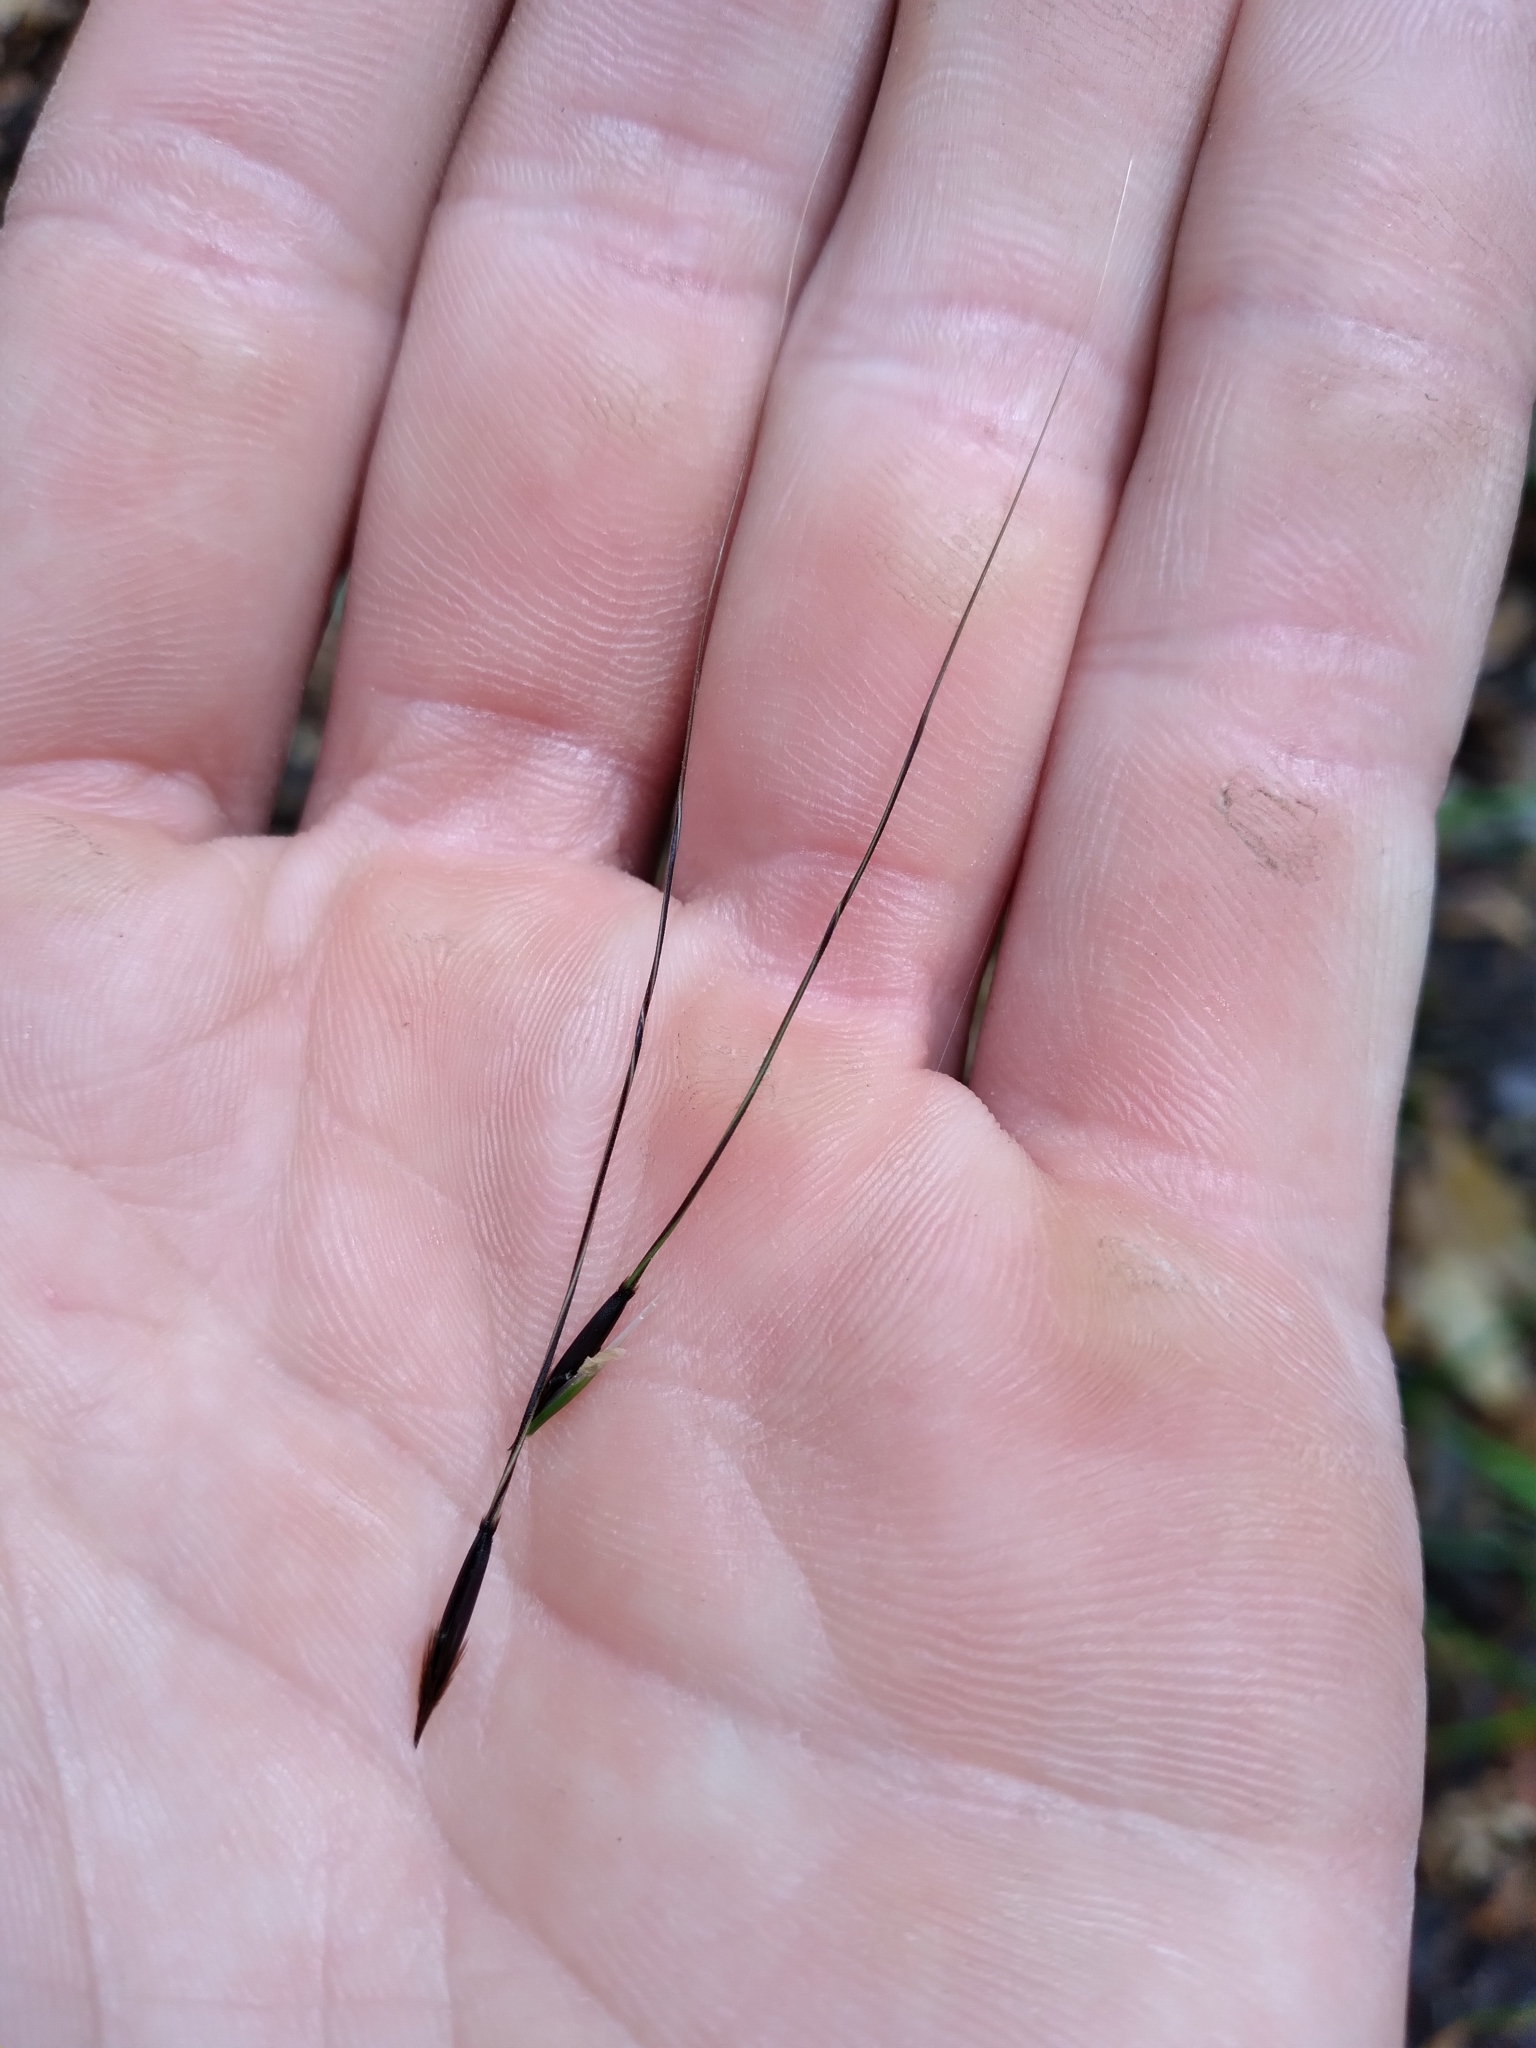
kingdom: Plantae
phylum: Tracheophyta
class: Liliopsida
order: Poales
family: Poaceae
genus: Piptochaetium
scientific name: Piptochaetium avenaceum
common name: Black bunchgrass
